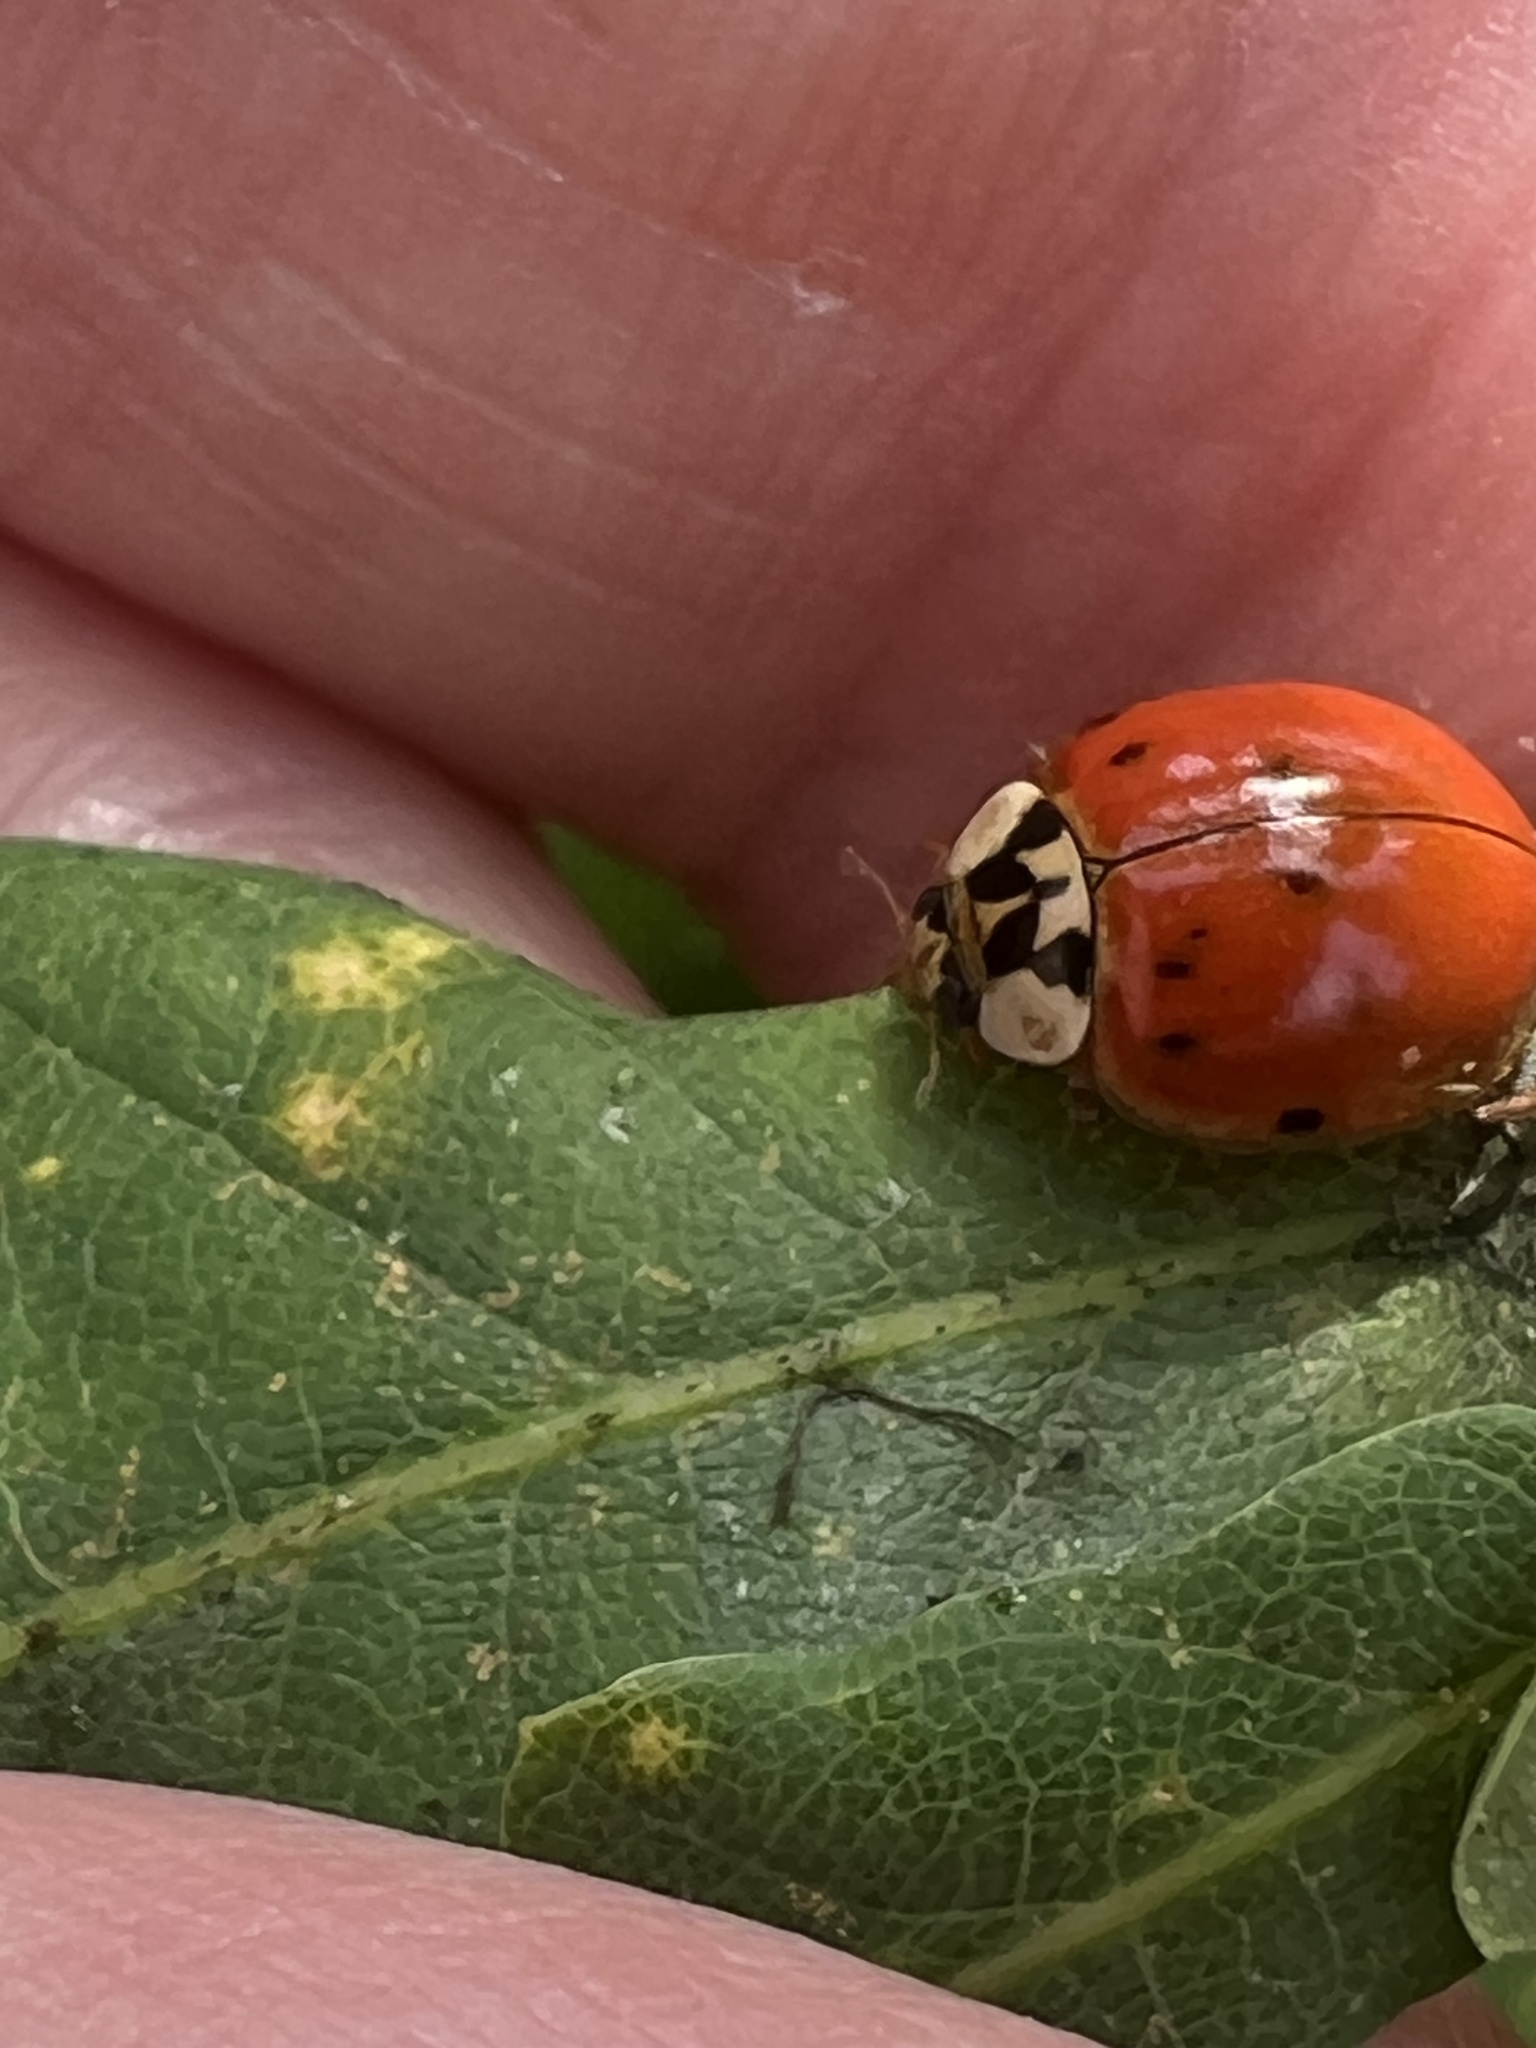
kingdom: Animalia
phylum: Arthropoda
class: Insecta
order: Coleoptera
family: Coccinellidae
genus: Harmonia
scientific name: Harmonia axyridis
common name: Harlequin ladybird
